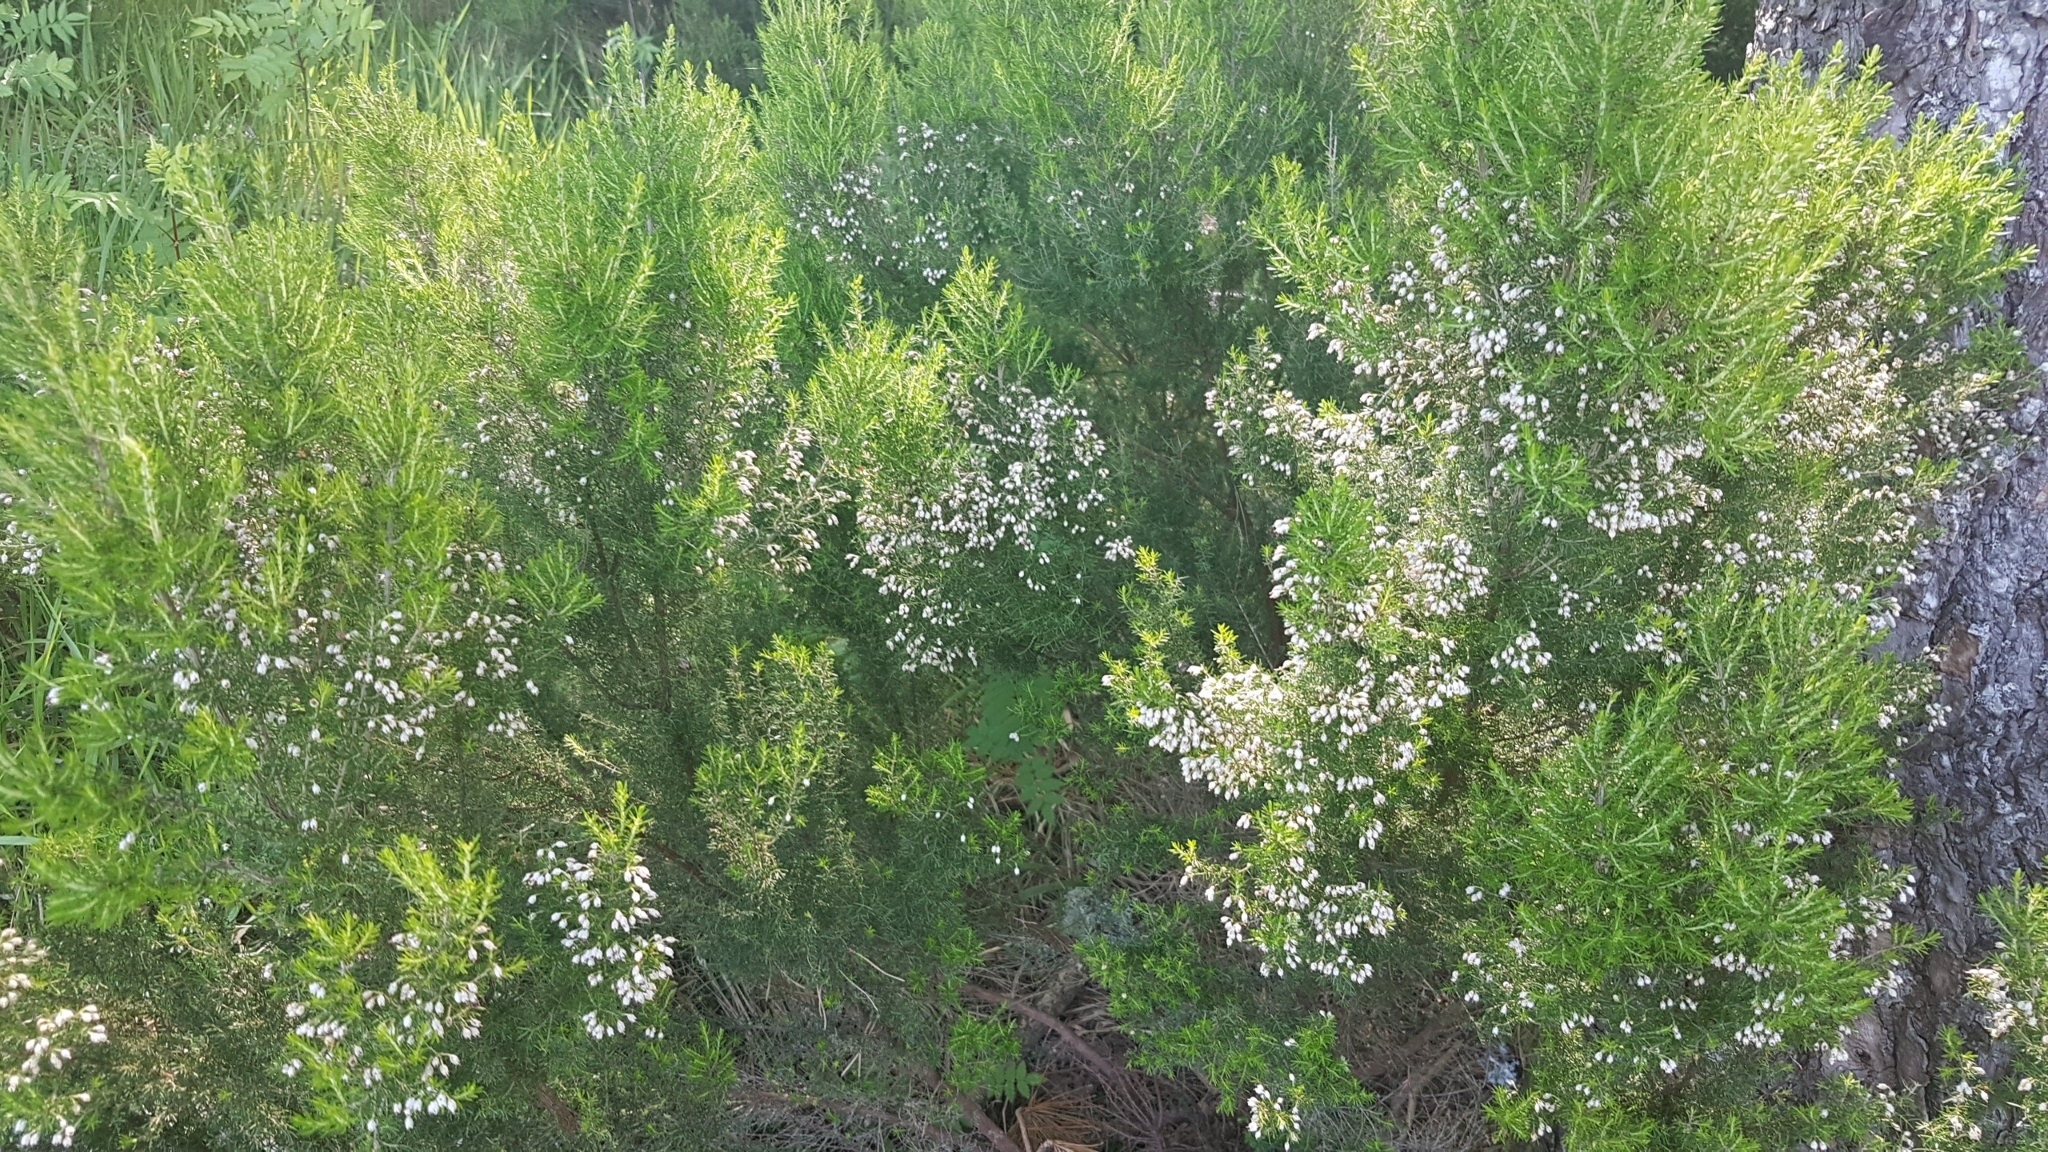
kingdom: Plantae
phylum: Tracheophyta
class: Magnoliopsida
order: Ericales
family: Ericaceae
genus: Erica
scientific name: Erica arborea
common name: Tree heath
